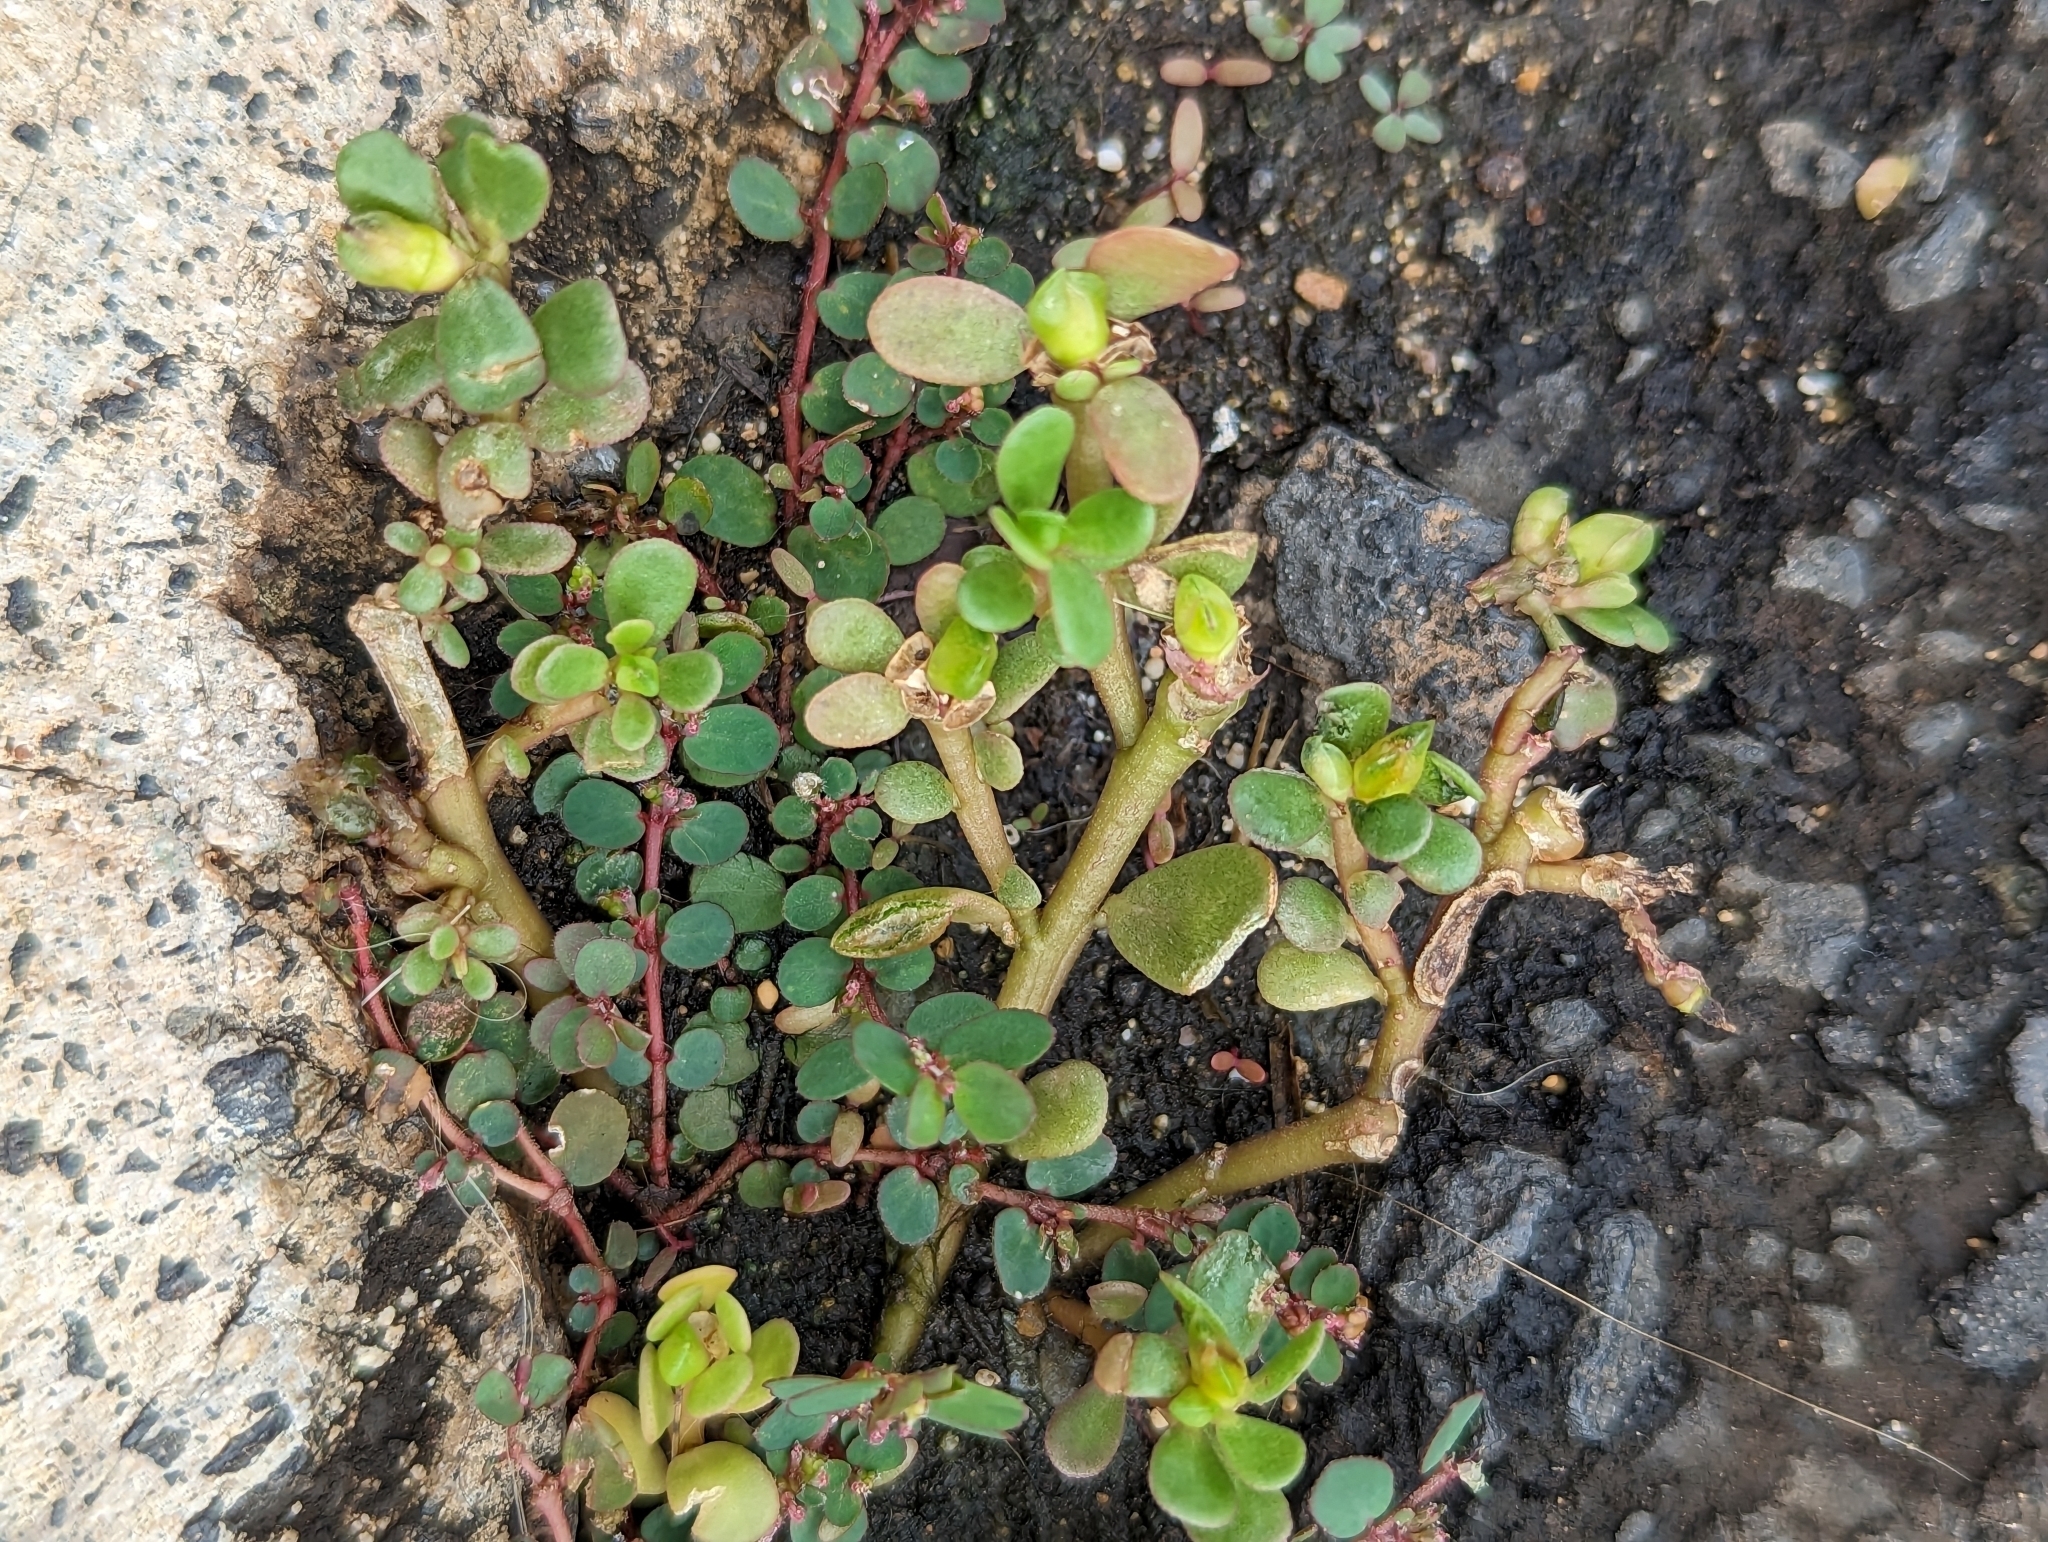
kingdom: Plantae
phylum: Tracheophyta
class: Magnoliopsida
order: Malpighiales
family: Euphorbiaceae
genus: Euphorbia
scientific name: Euphorbia prostrata
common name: Prostrate sandmat
